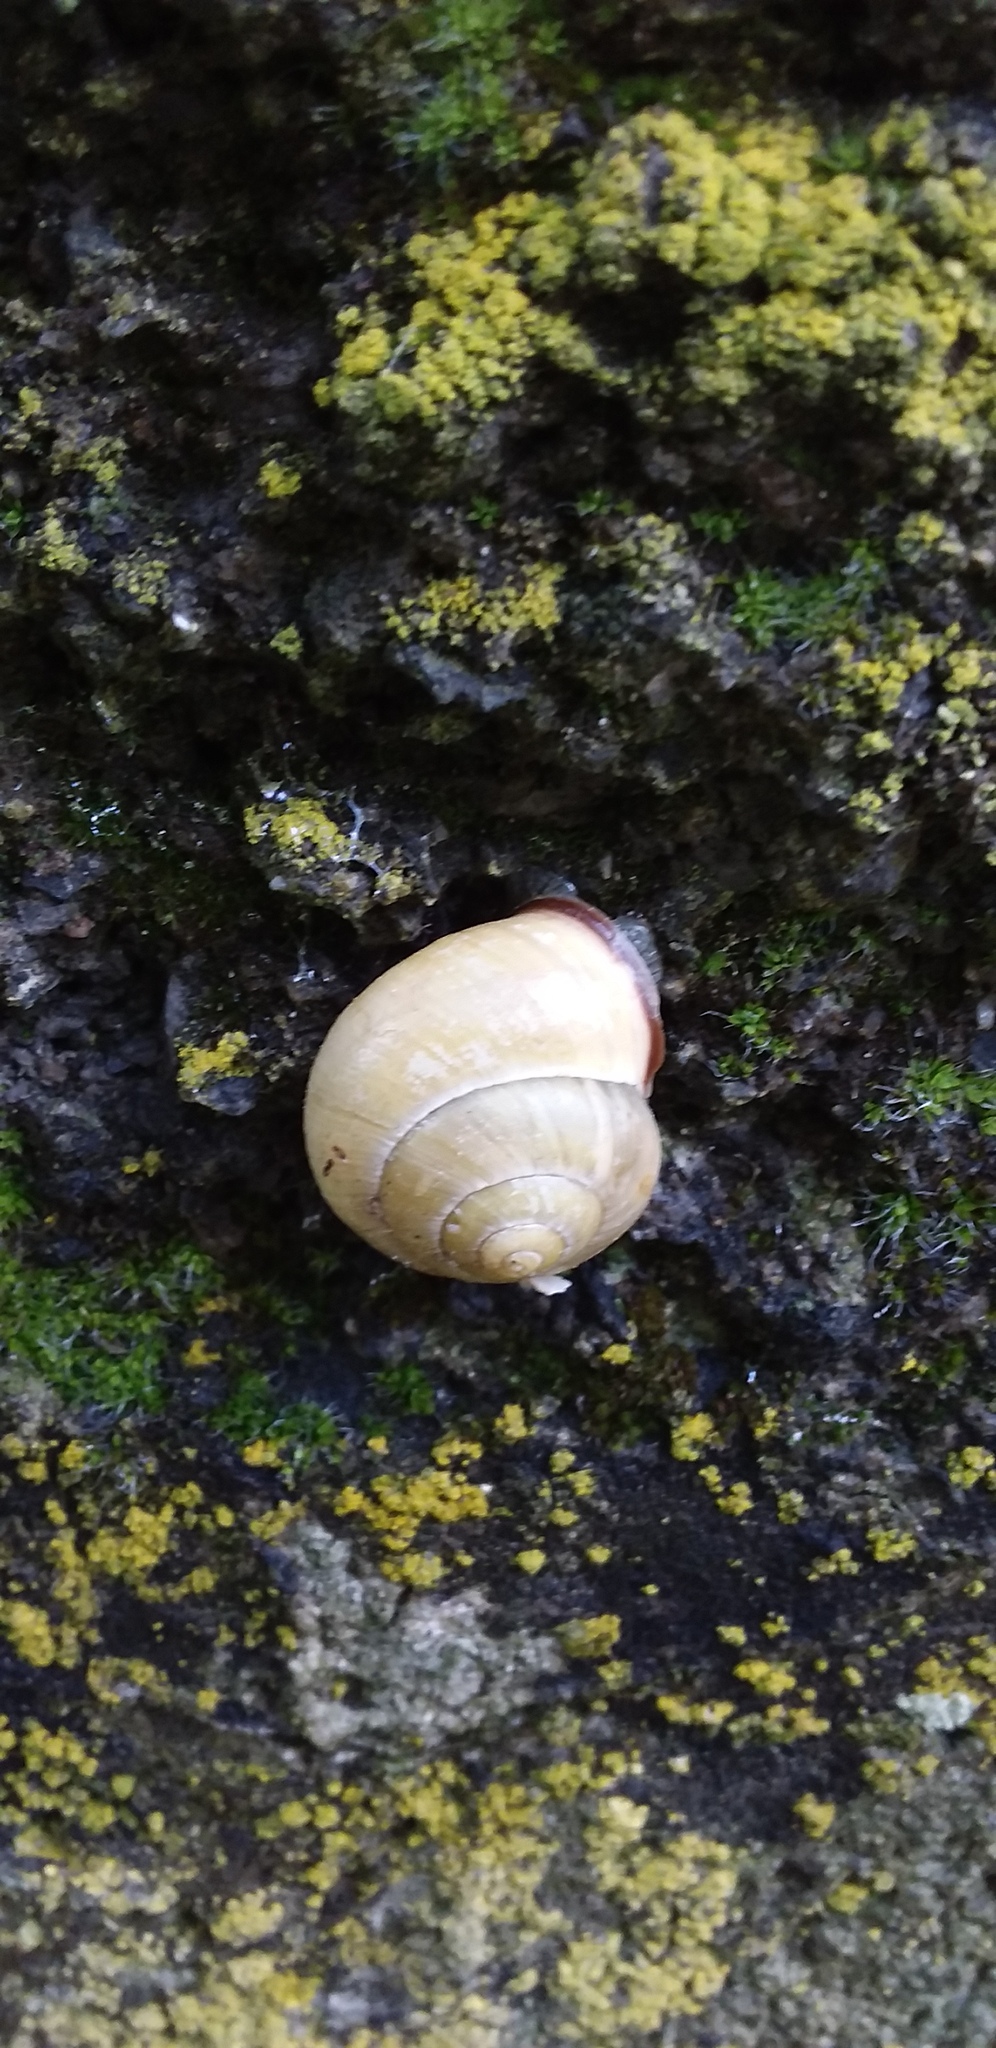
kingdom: Animalia
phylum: Mollusca
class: Gastropoda
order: Stylommatophora
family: Helicidae
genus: Cepaea
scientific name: Cepaea nemoralis
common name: Grovesnail
